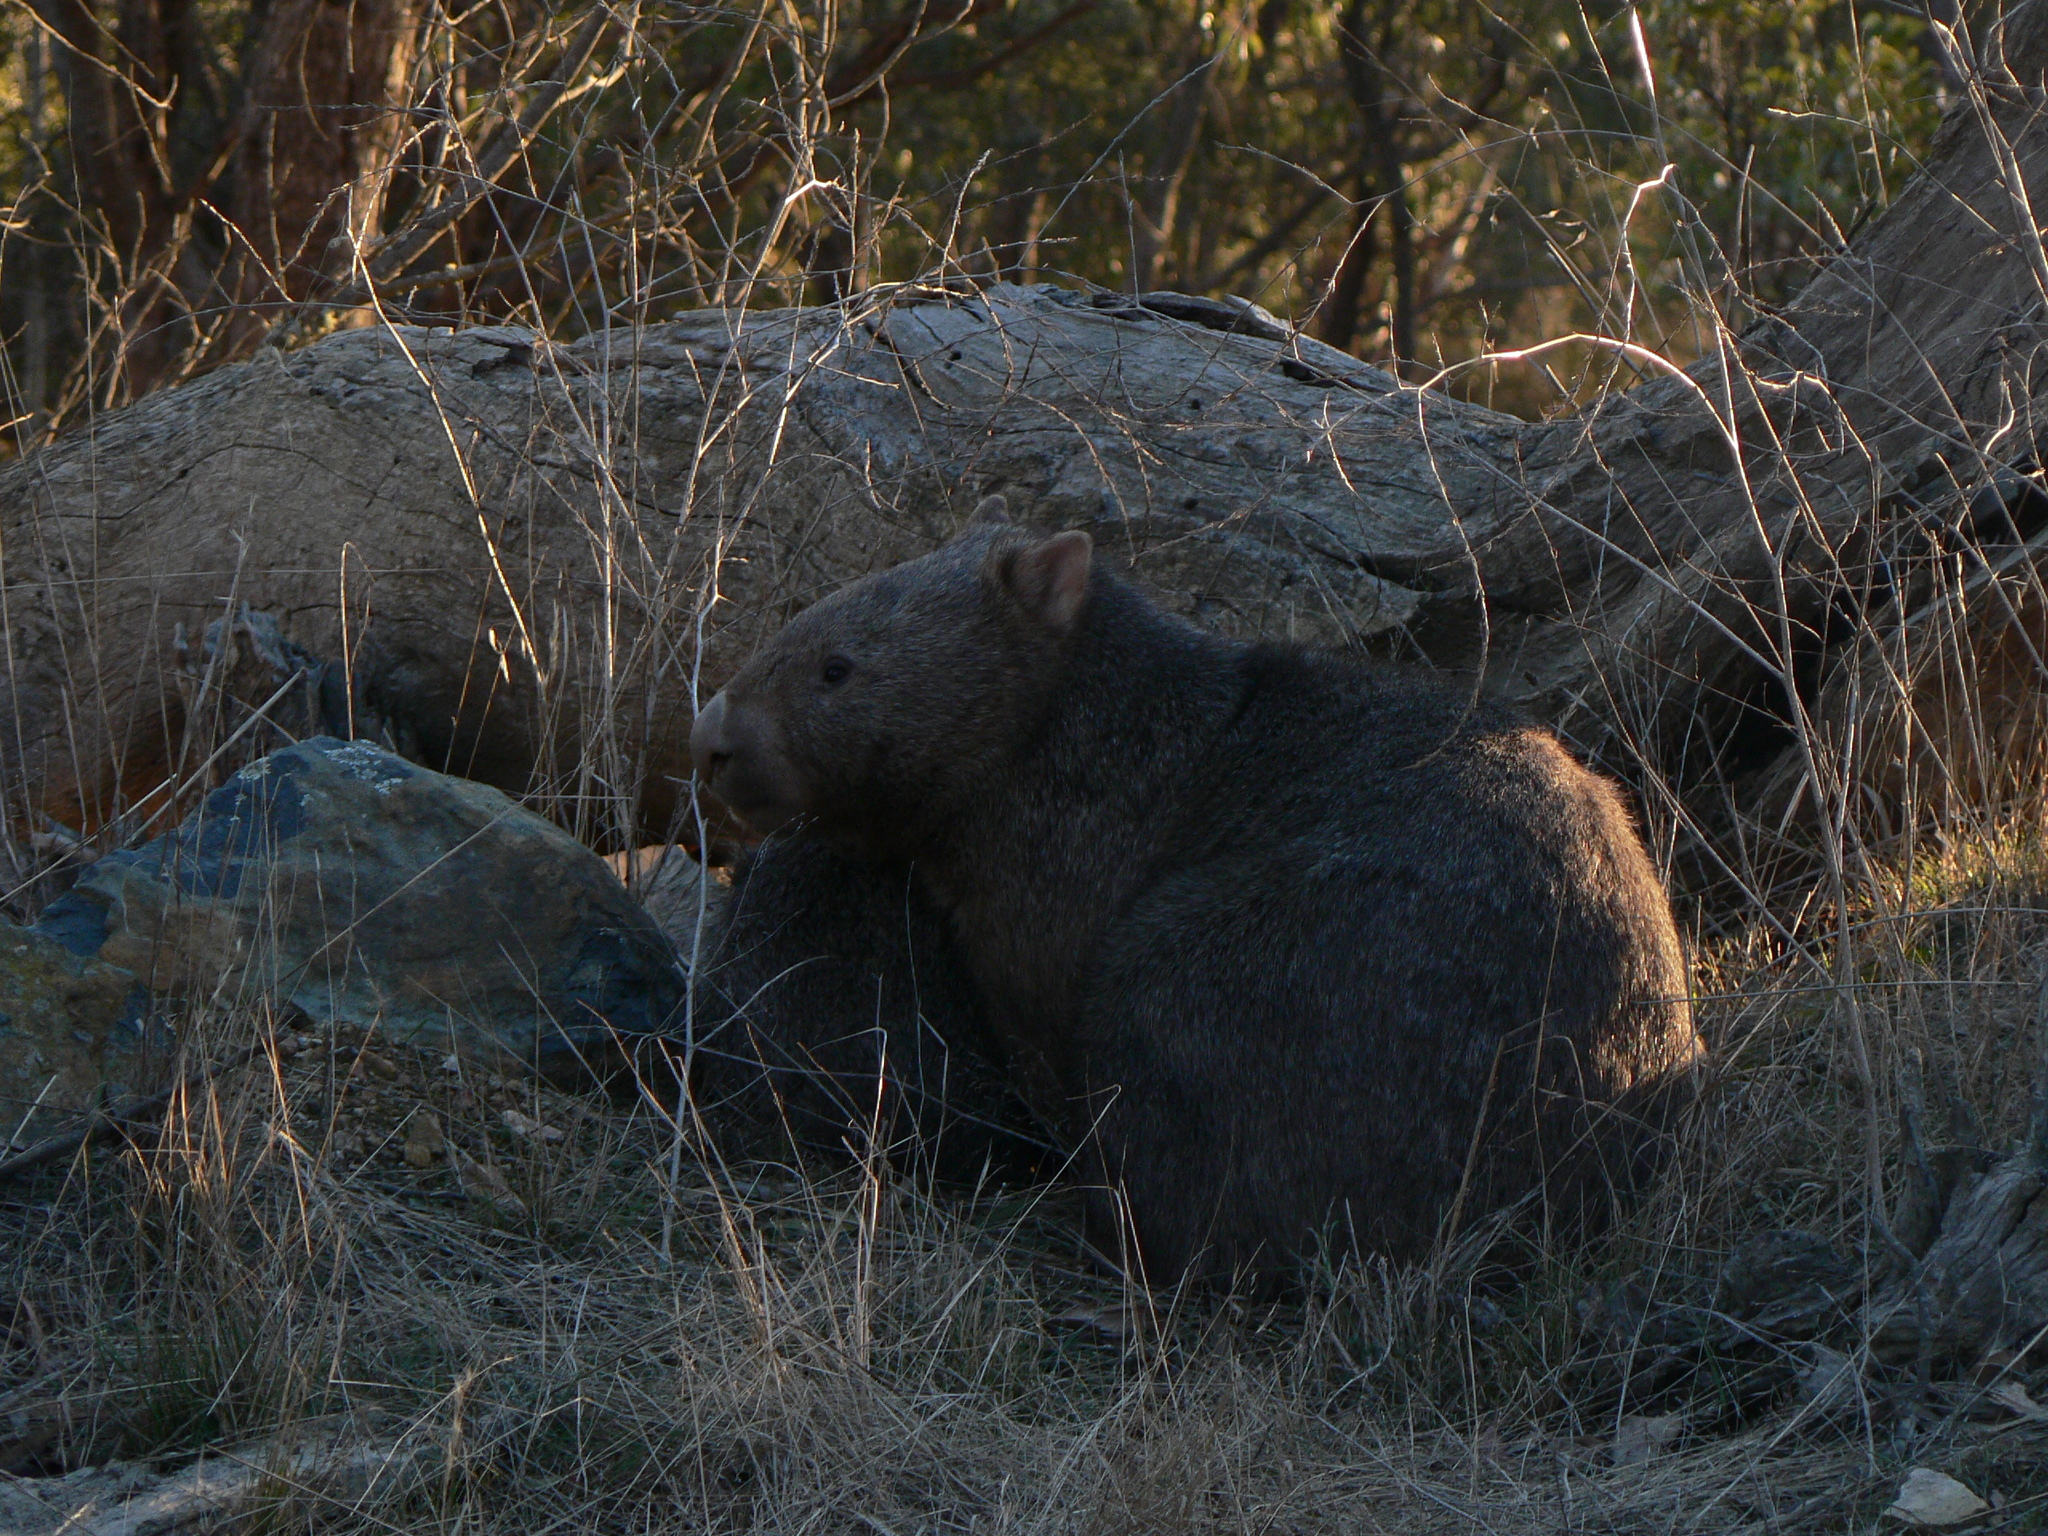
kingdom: Animalia
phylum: Chordata
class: Mammalia
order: Diprotodontia
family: Vombatidae
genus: Vombatus
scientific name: Vombatus ursinus
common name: Common wombat
